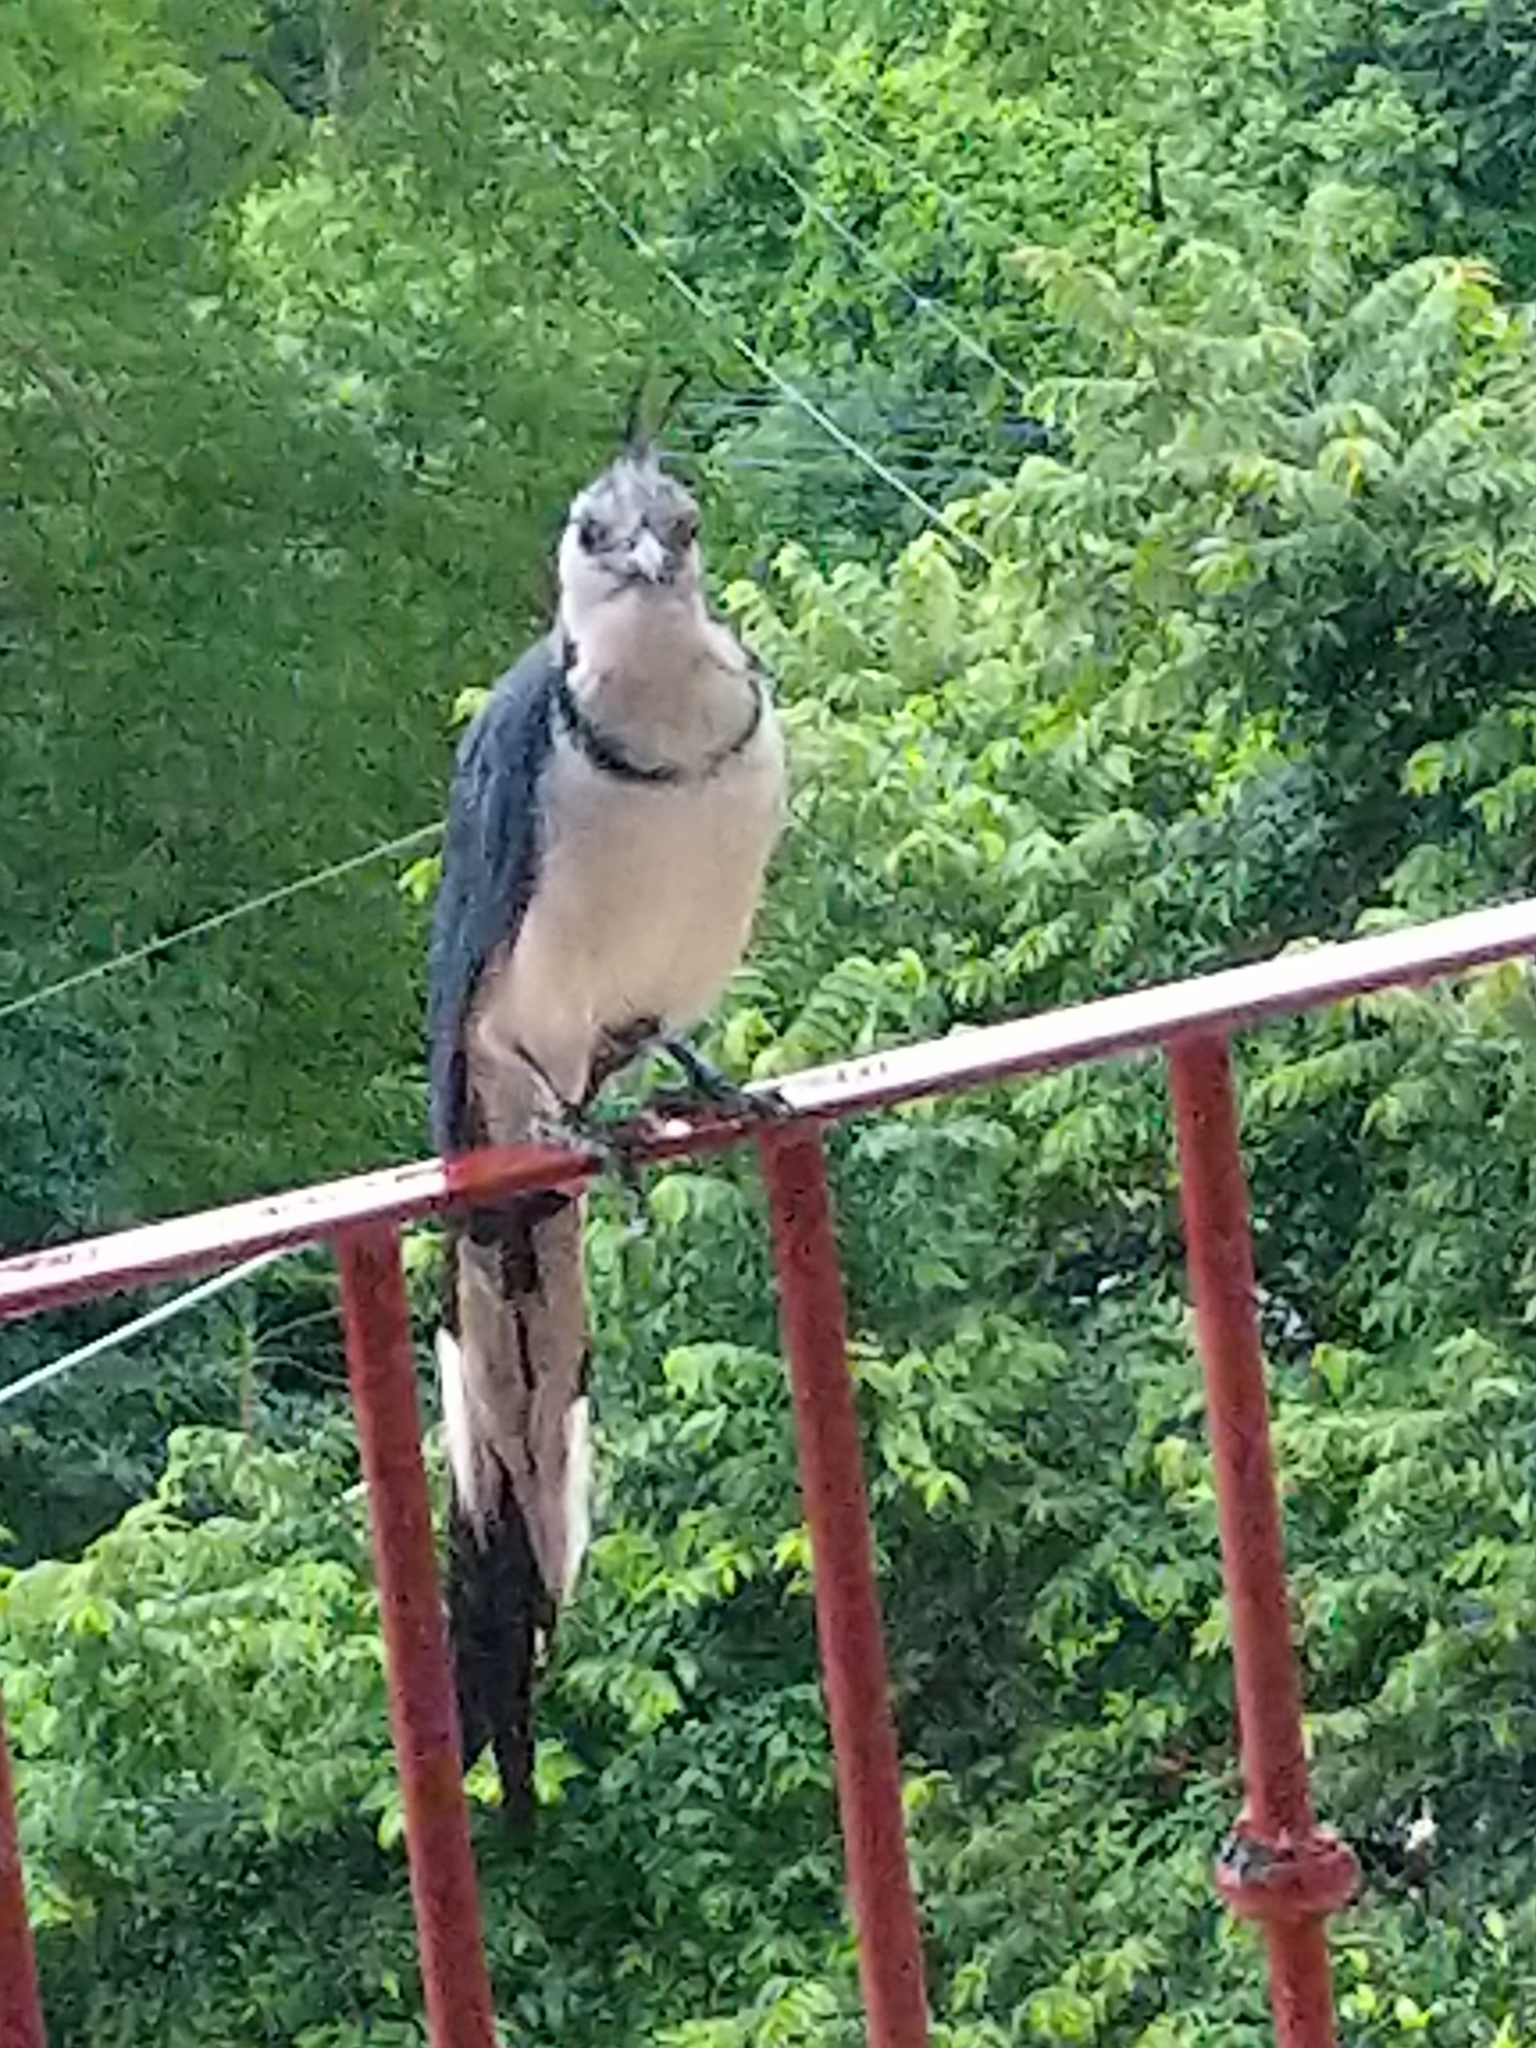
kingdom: Animalia
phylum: Chordata
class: Aves
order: Passeriformes
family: Corvidae
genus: Calocitta
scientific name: Calocitta formosa
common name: White-throated magpie-jay
